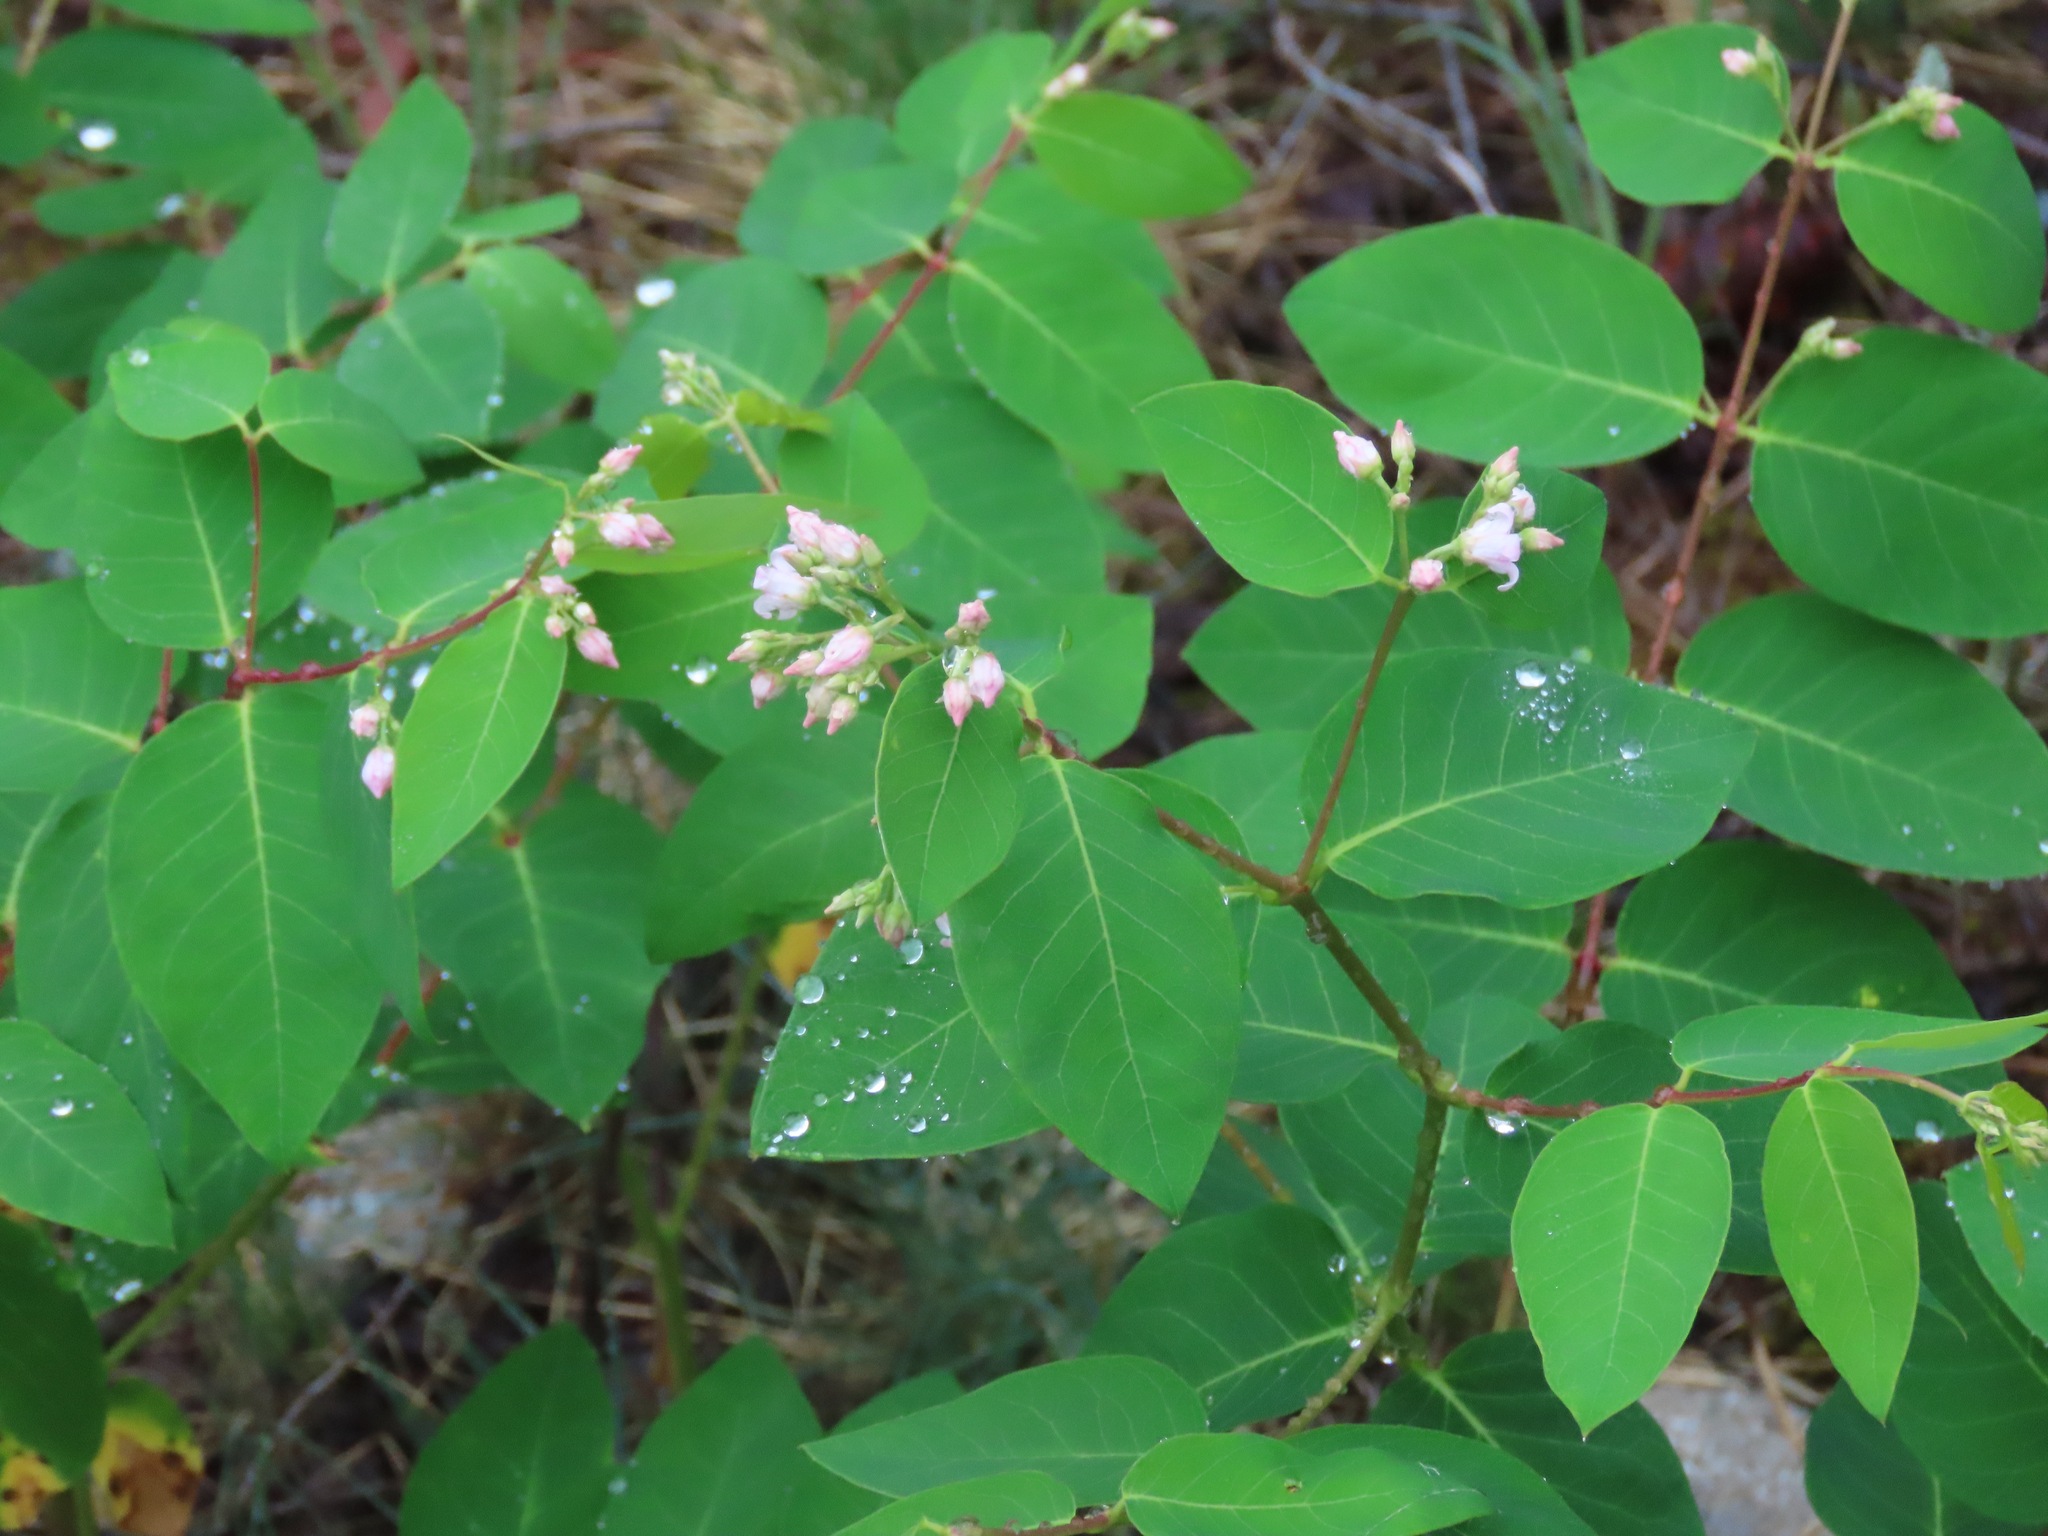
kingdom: Plantae
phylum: Tracheophyta
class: Magnoliopsida
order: Gentianales
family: Apocynaceae
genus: Apocynum
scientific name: Apocynum androsaemifolium
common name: Spreading dogbane
